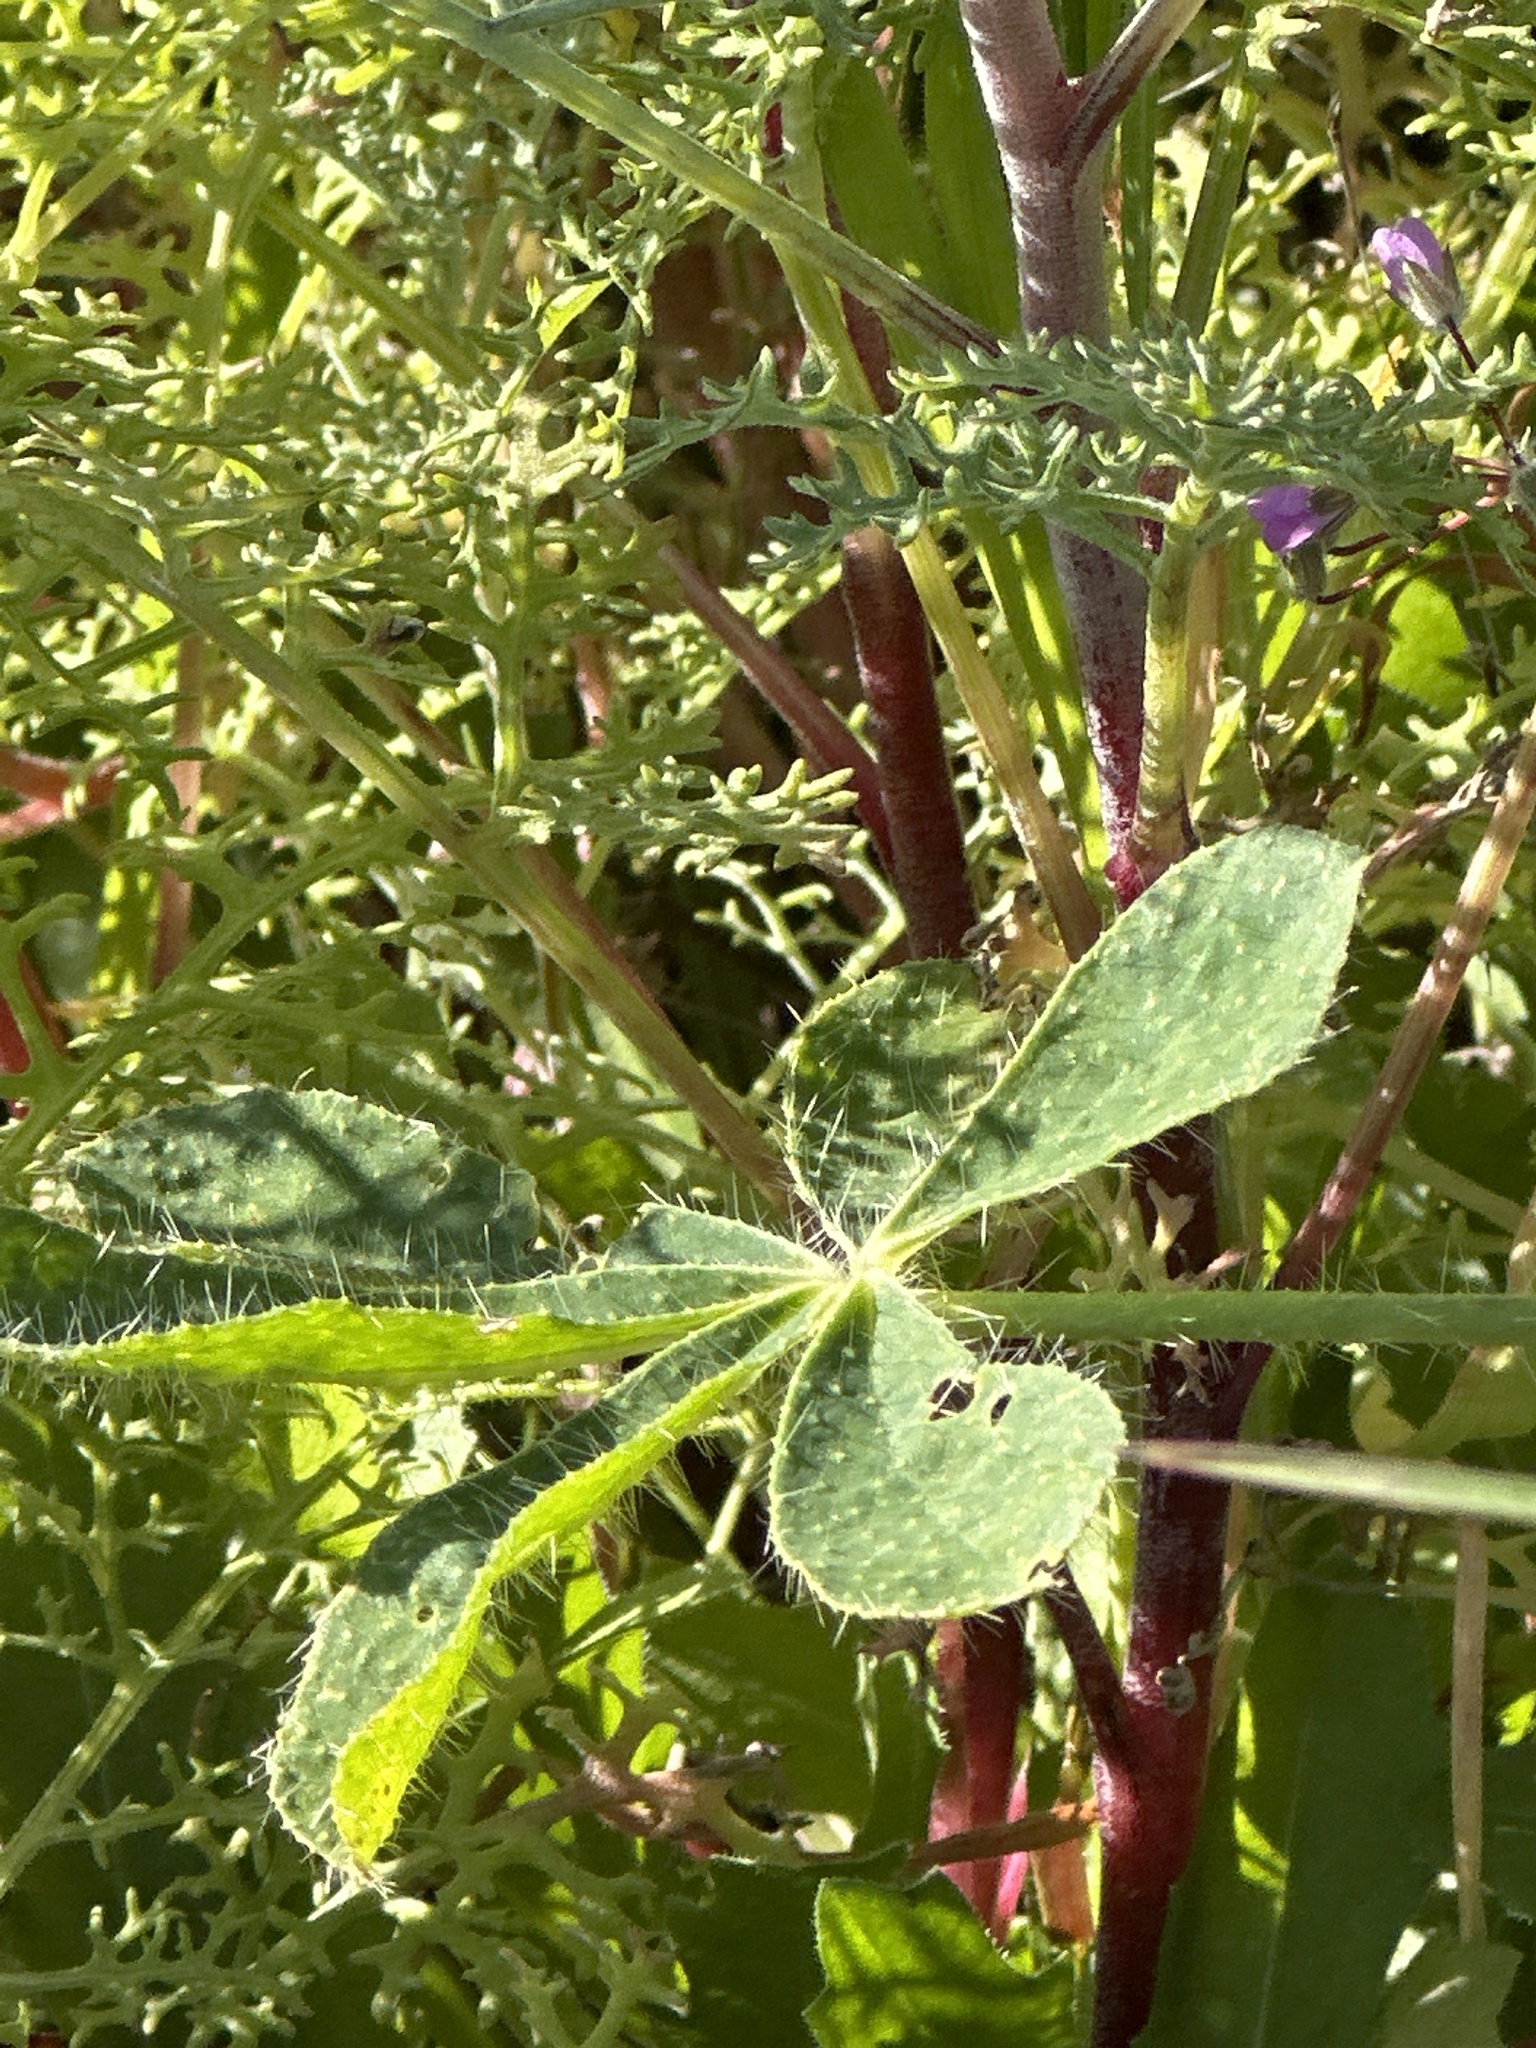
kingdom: Plantae
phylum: Tracheophyta
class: Magnoliopsida
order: Fabales
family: Fabaceae
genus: Lupinus
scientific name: Lupinus hirsutissimus
